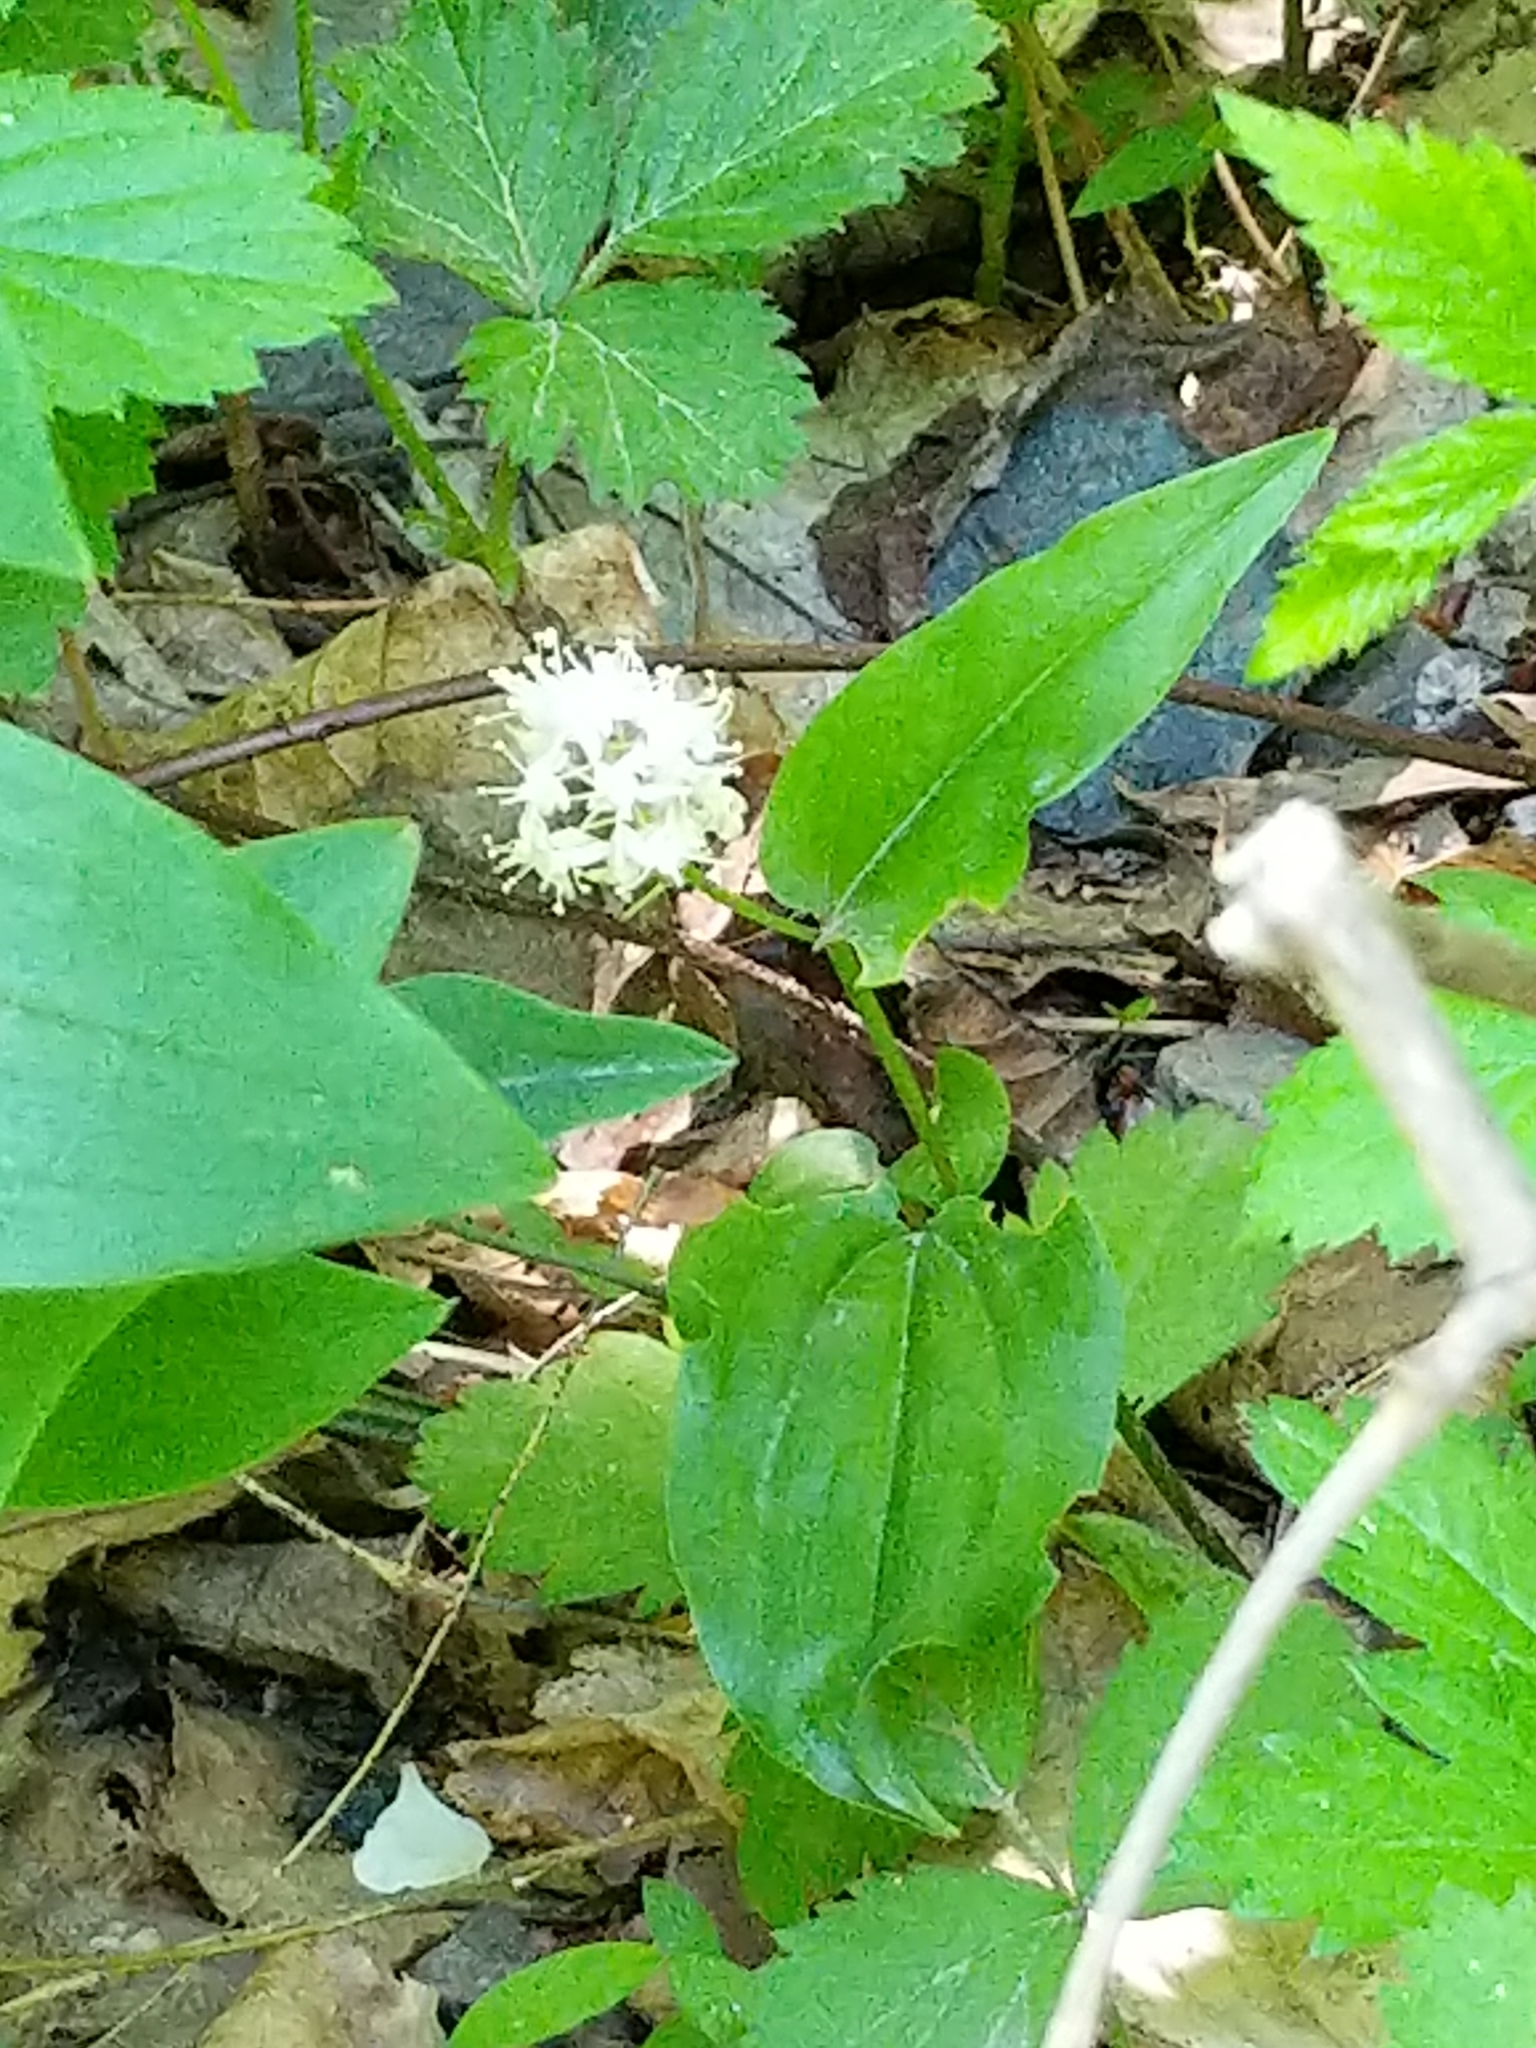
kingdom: Plantae
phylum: Tracheophyta
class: Liliopsida
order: Asparagales
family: Asparagaceae
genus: Maianthemum
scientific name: Maianthemum canadense
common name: False lily-of-the-valley
